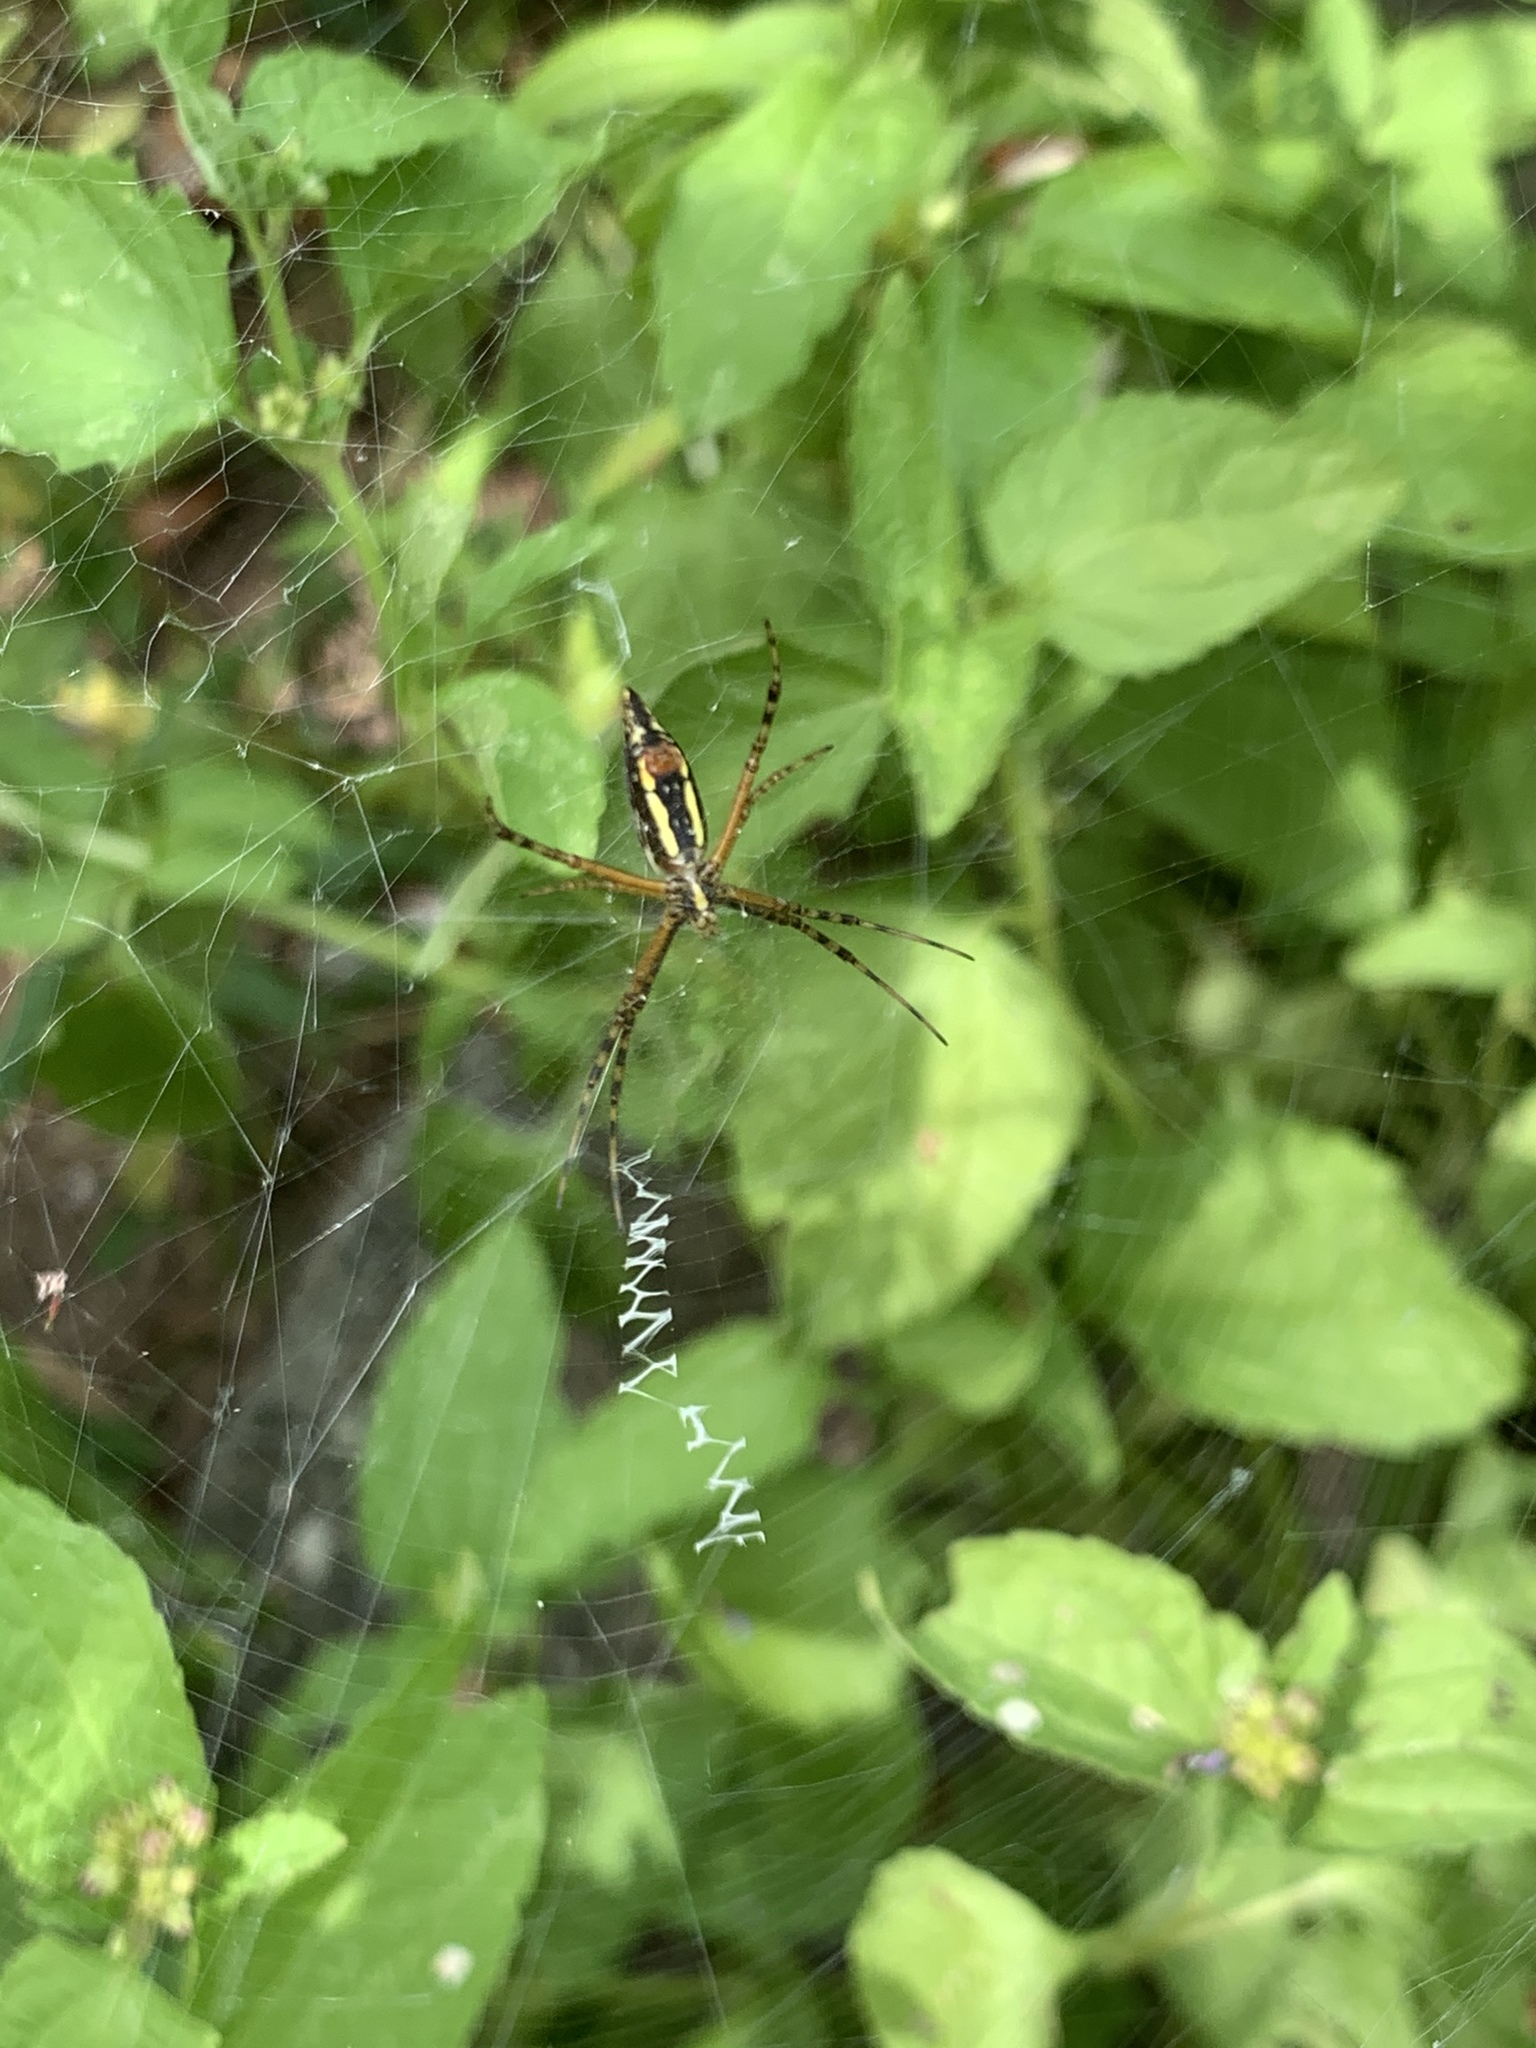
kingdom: Animalia
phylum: Arthropoda
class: Arachnida
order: Araneae
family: Araneidae
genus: Argiope
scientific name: Argiope aurantia
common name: Orb weavers
